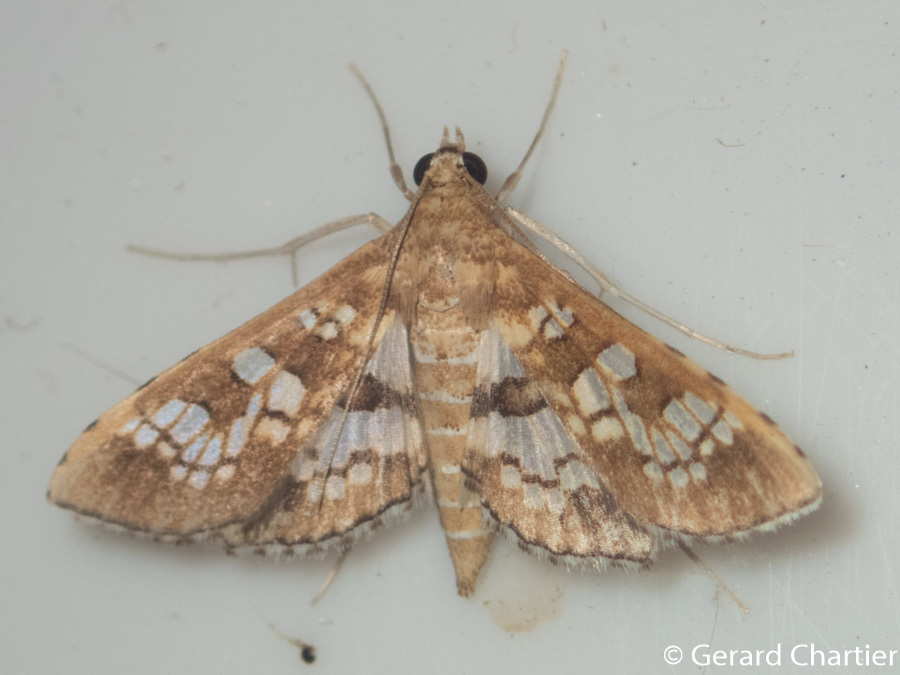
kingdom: Animalia
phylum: Arthropoda
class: Insecta
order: Lepidoptera
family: Crambidae
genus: Sameodes
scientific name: Sameodes cancellalis
